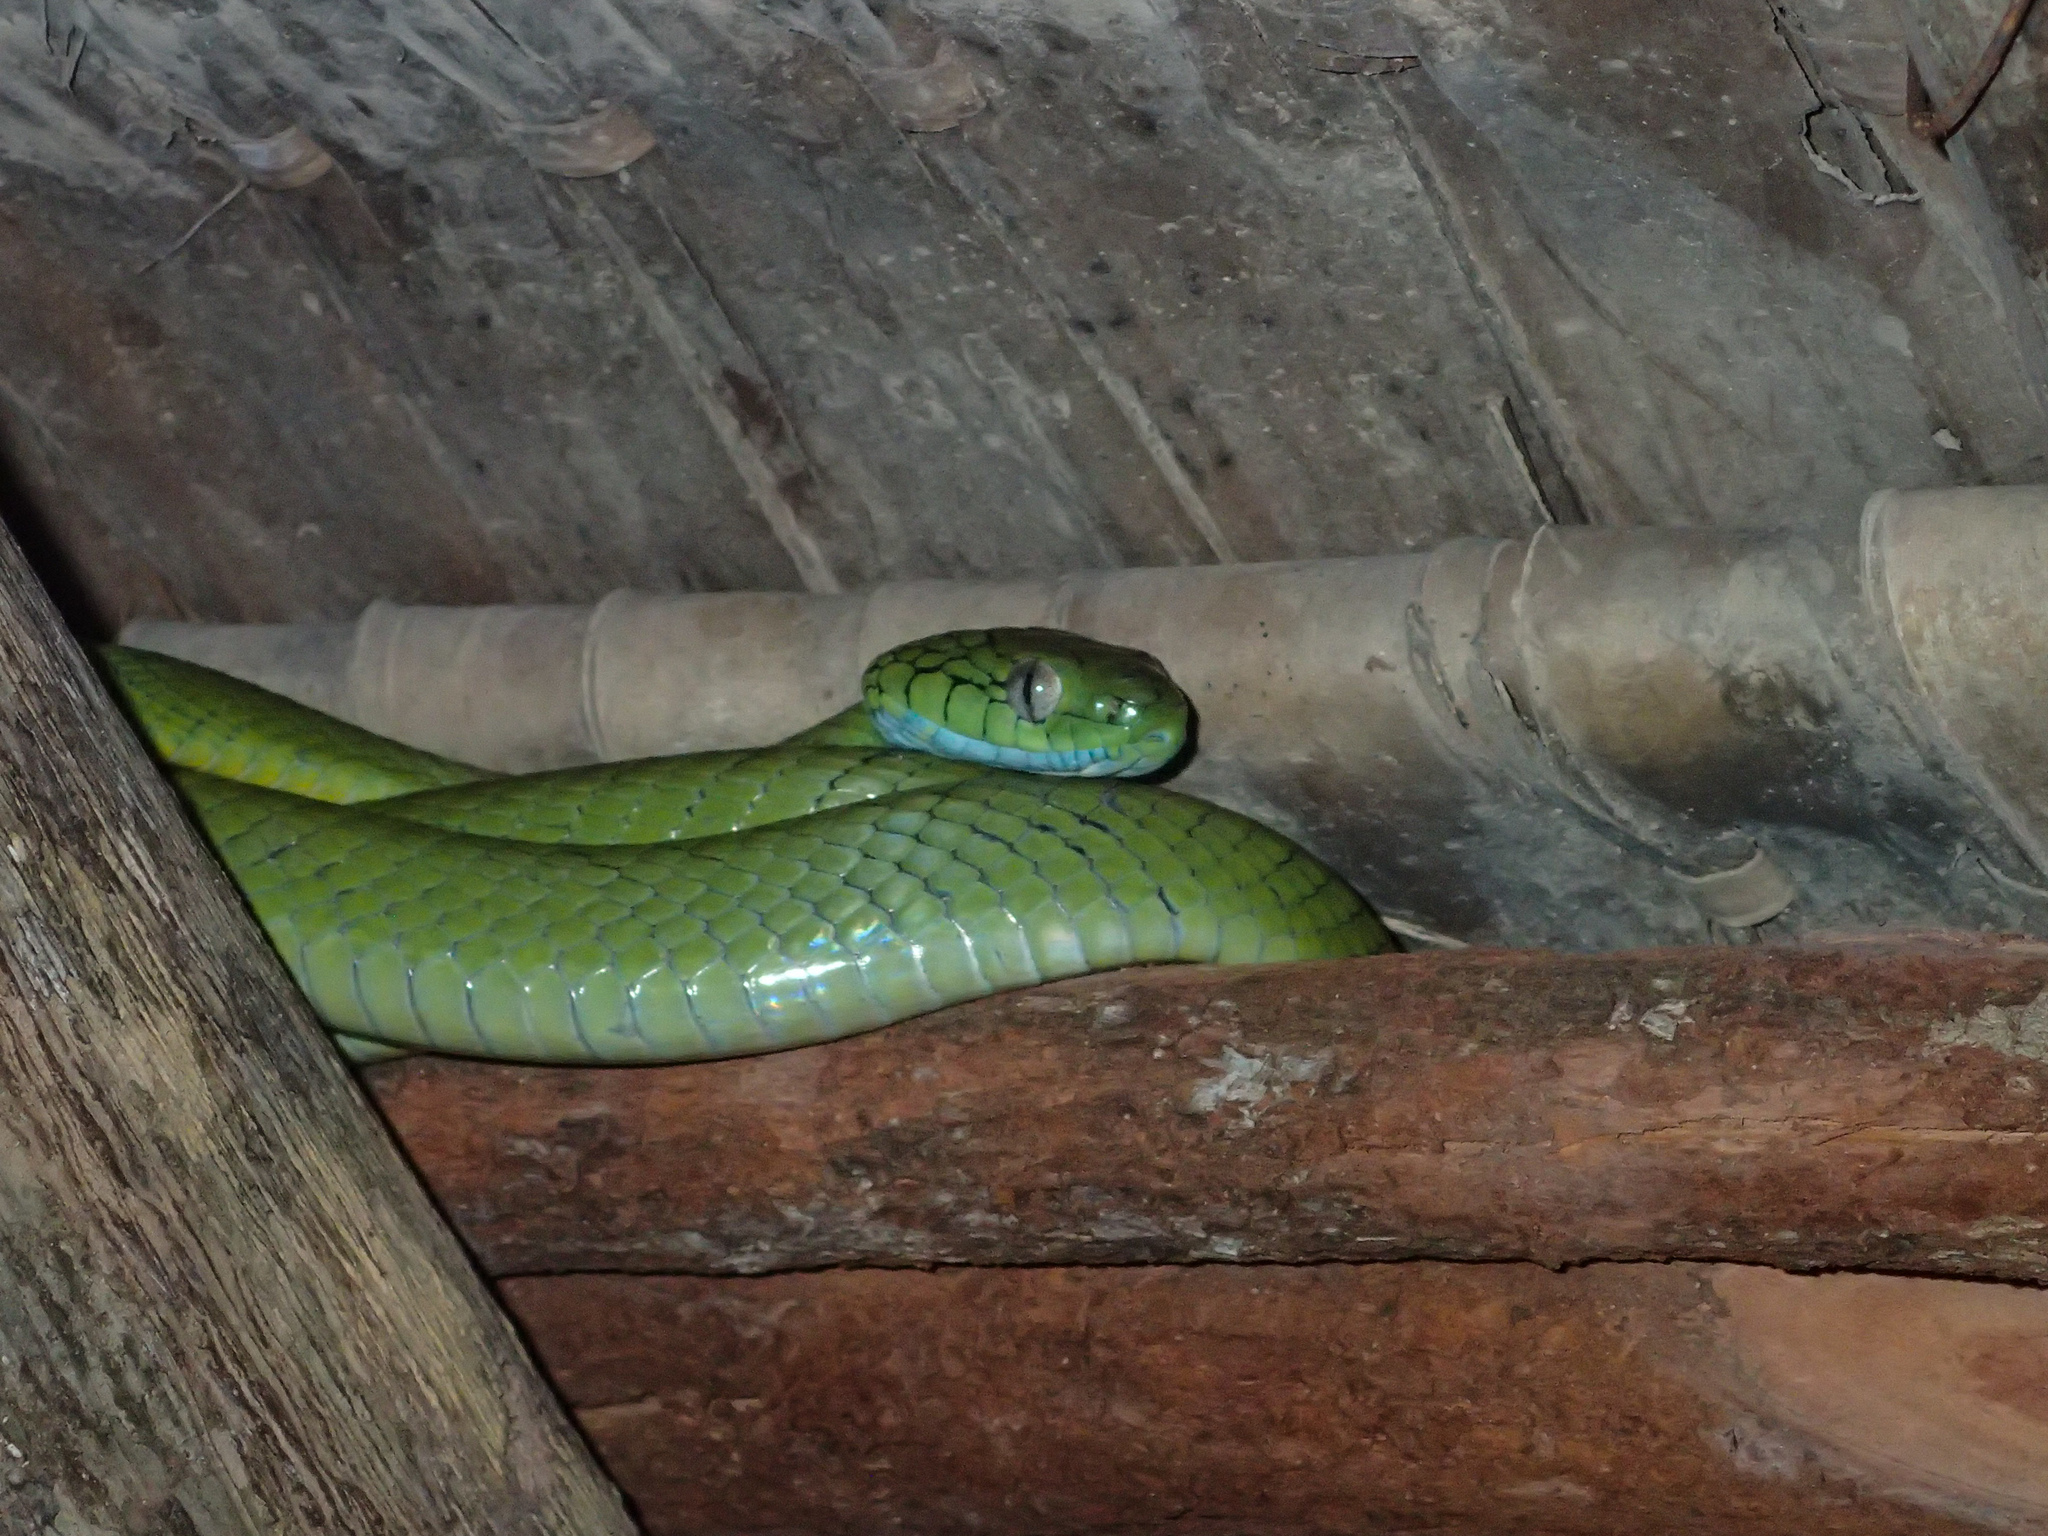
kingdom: Animalia
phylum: Chordata
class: Squamata
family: Colubridae
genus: Boiga
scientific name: Boiga cyanea
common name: Green cat snake
